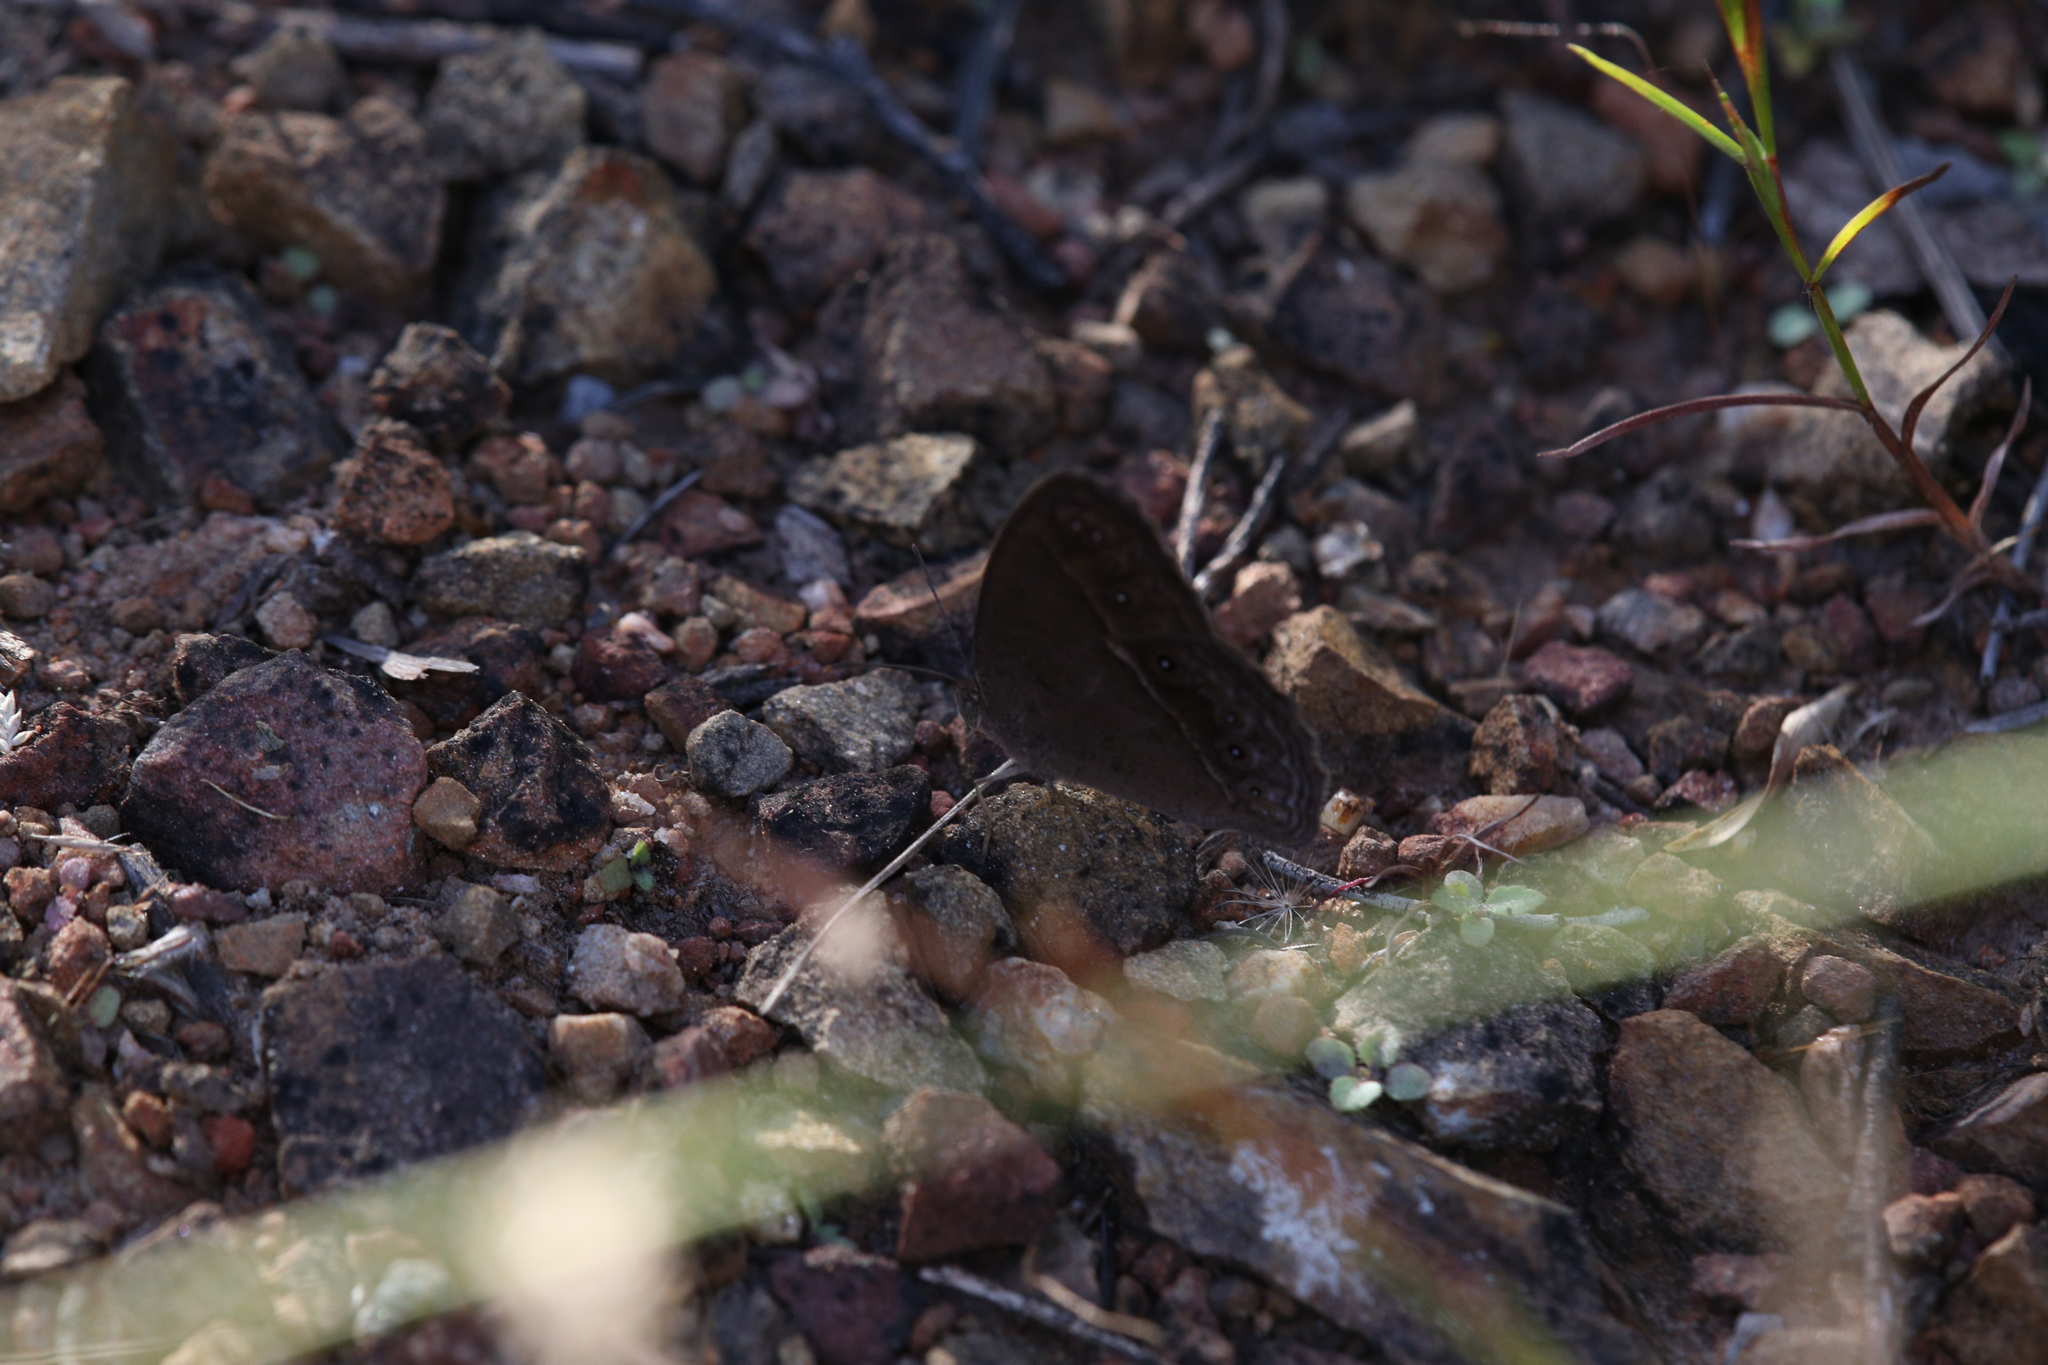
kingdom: Animalia
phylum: Arthropoda
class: Insecta
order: Lepidoptera
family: Nymphalidae
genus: Mycalesis
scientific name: Mycalesis perseus
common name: Dingy bushbrown
